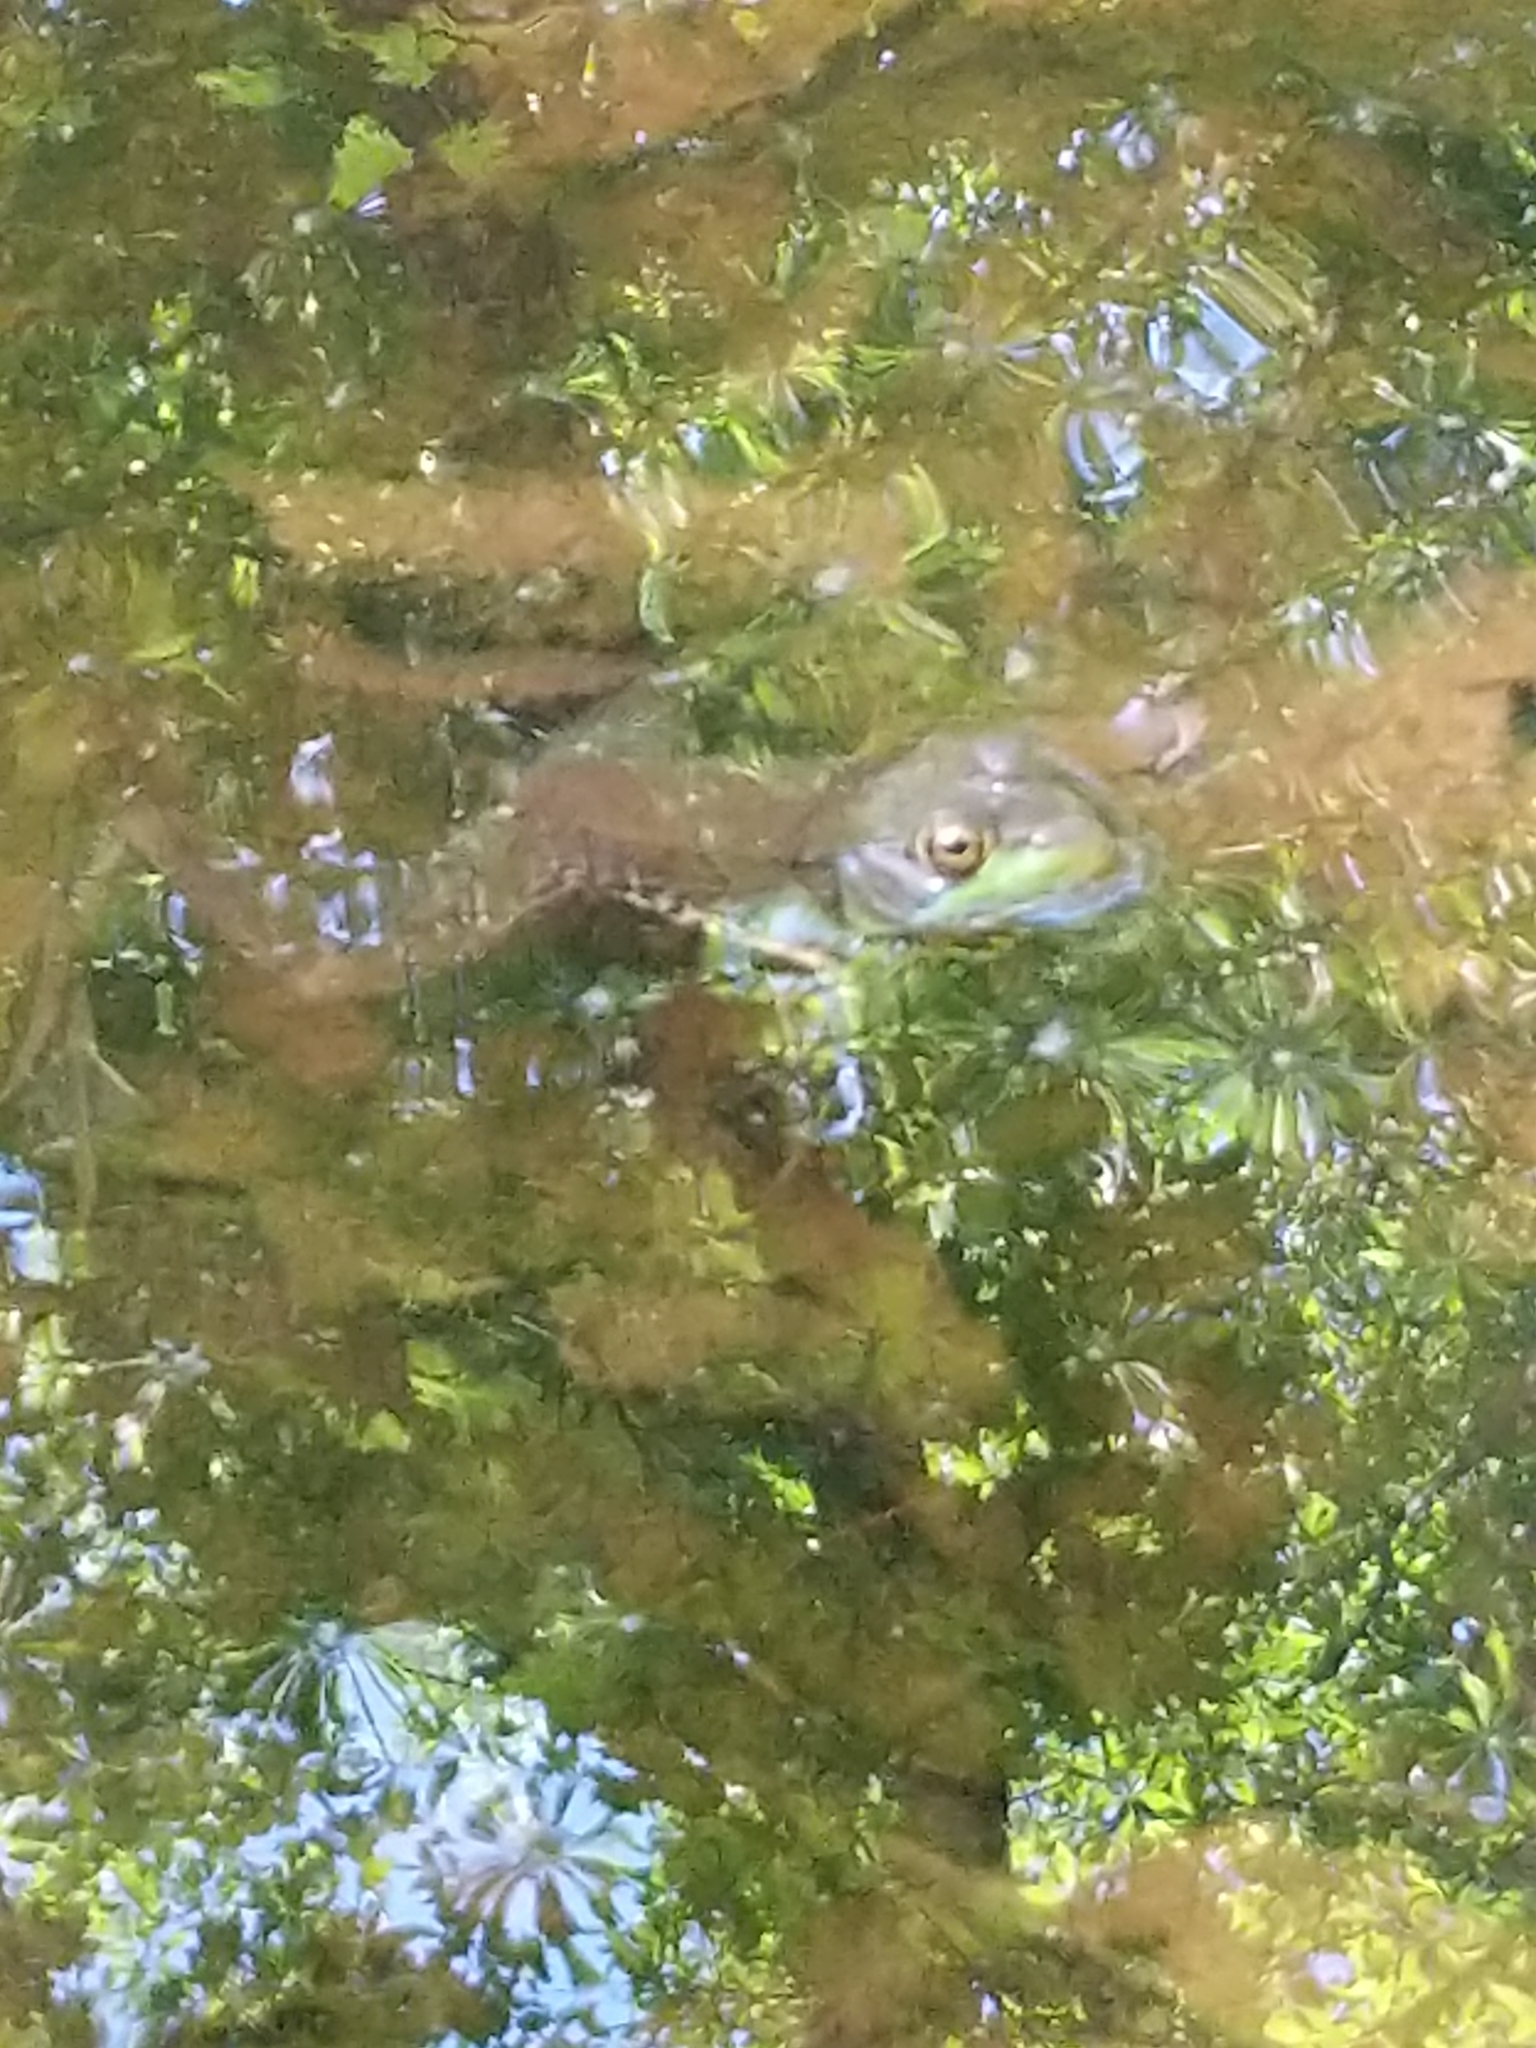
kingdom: Animalia
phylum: Chordata
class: Amphibia
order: Anura
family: Ranidae
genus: Lithobates
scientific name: Lithobates clamitans
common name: Green frog
